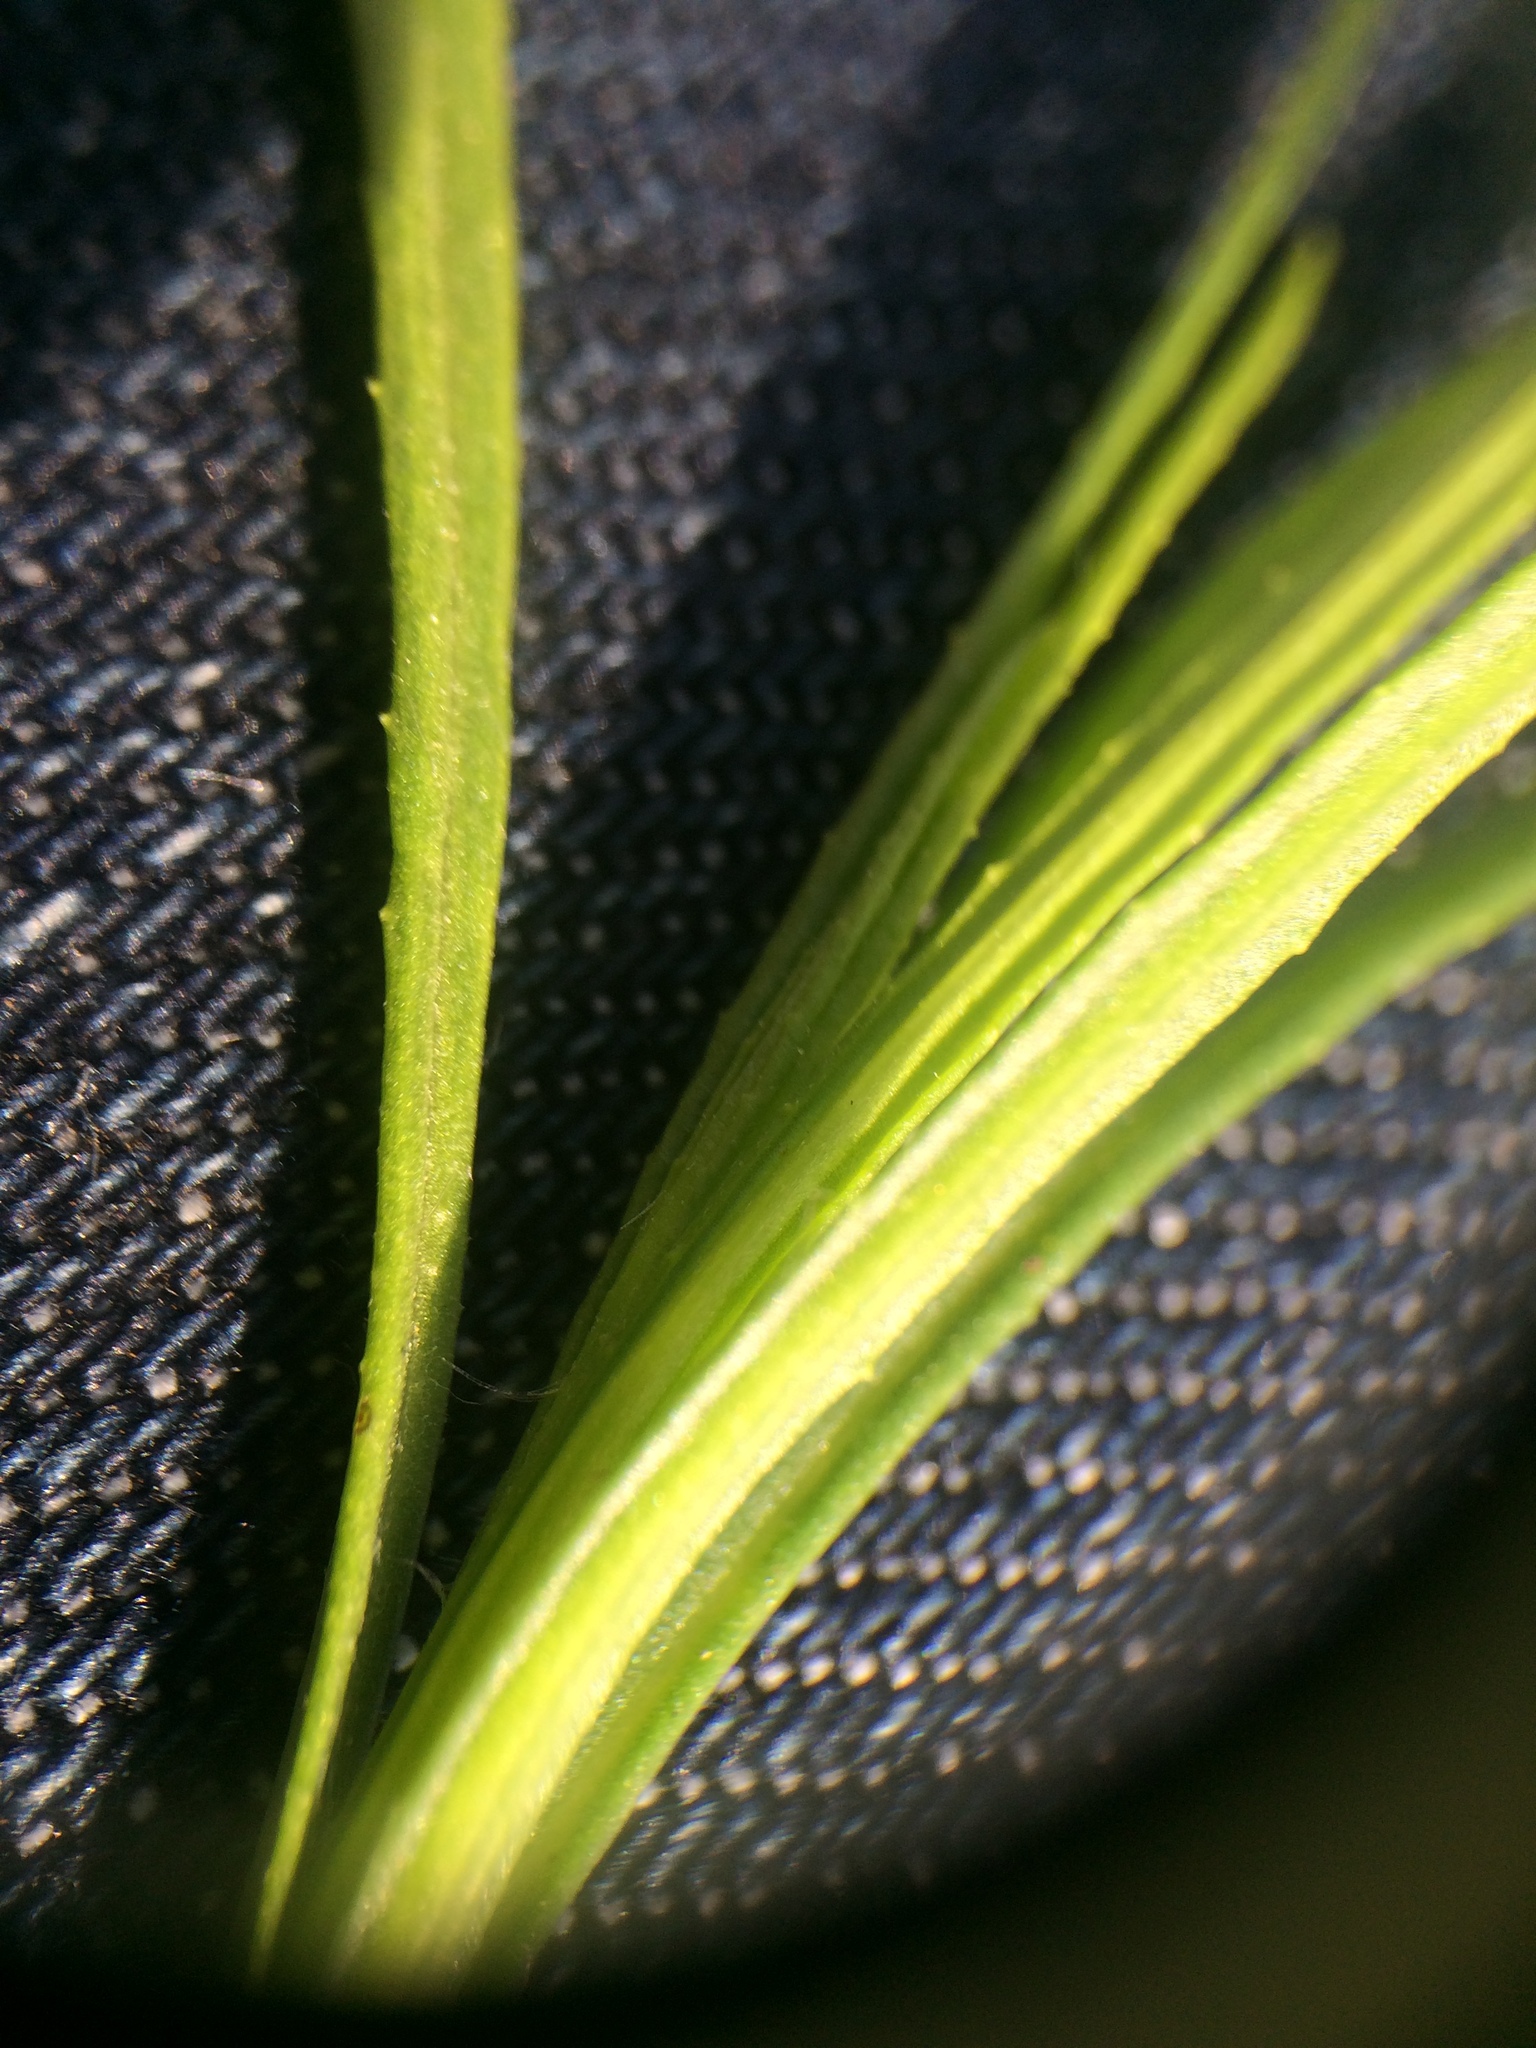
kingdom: Plantae
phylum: Tracheophyta
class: Magnoliopsida
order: Asterales
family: Asteraceae
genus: Senecio
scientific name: Senecio inaequidens
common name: Narrow-leaved ragwort
